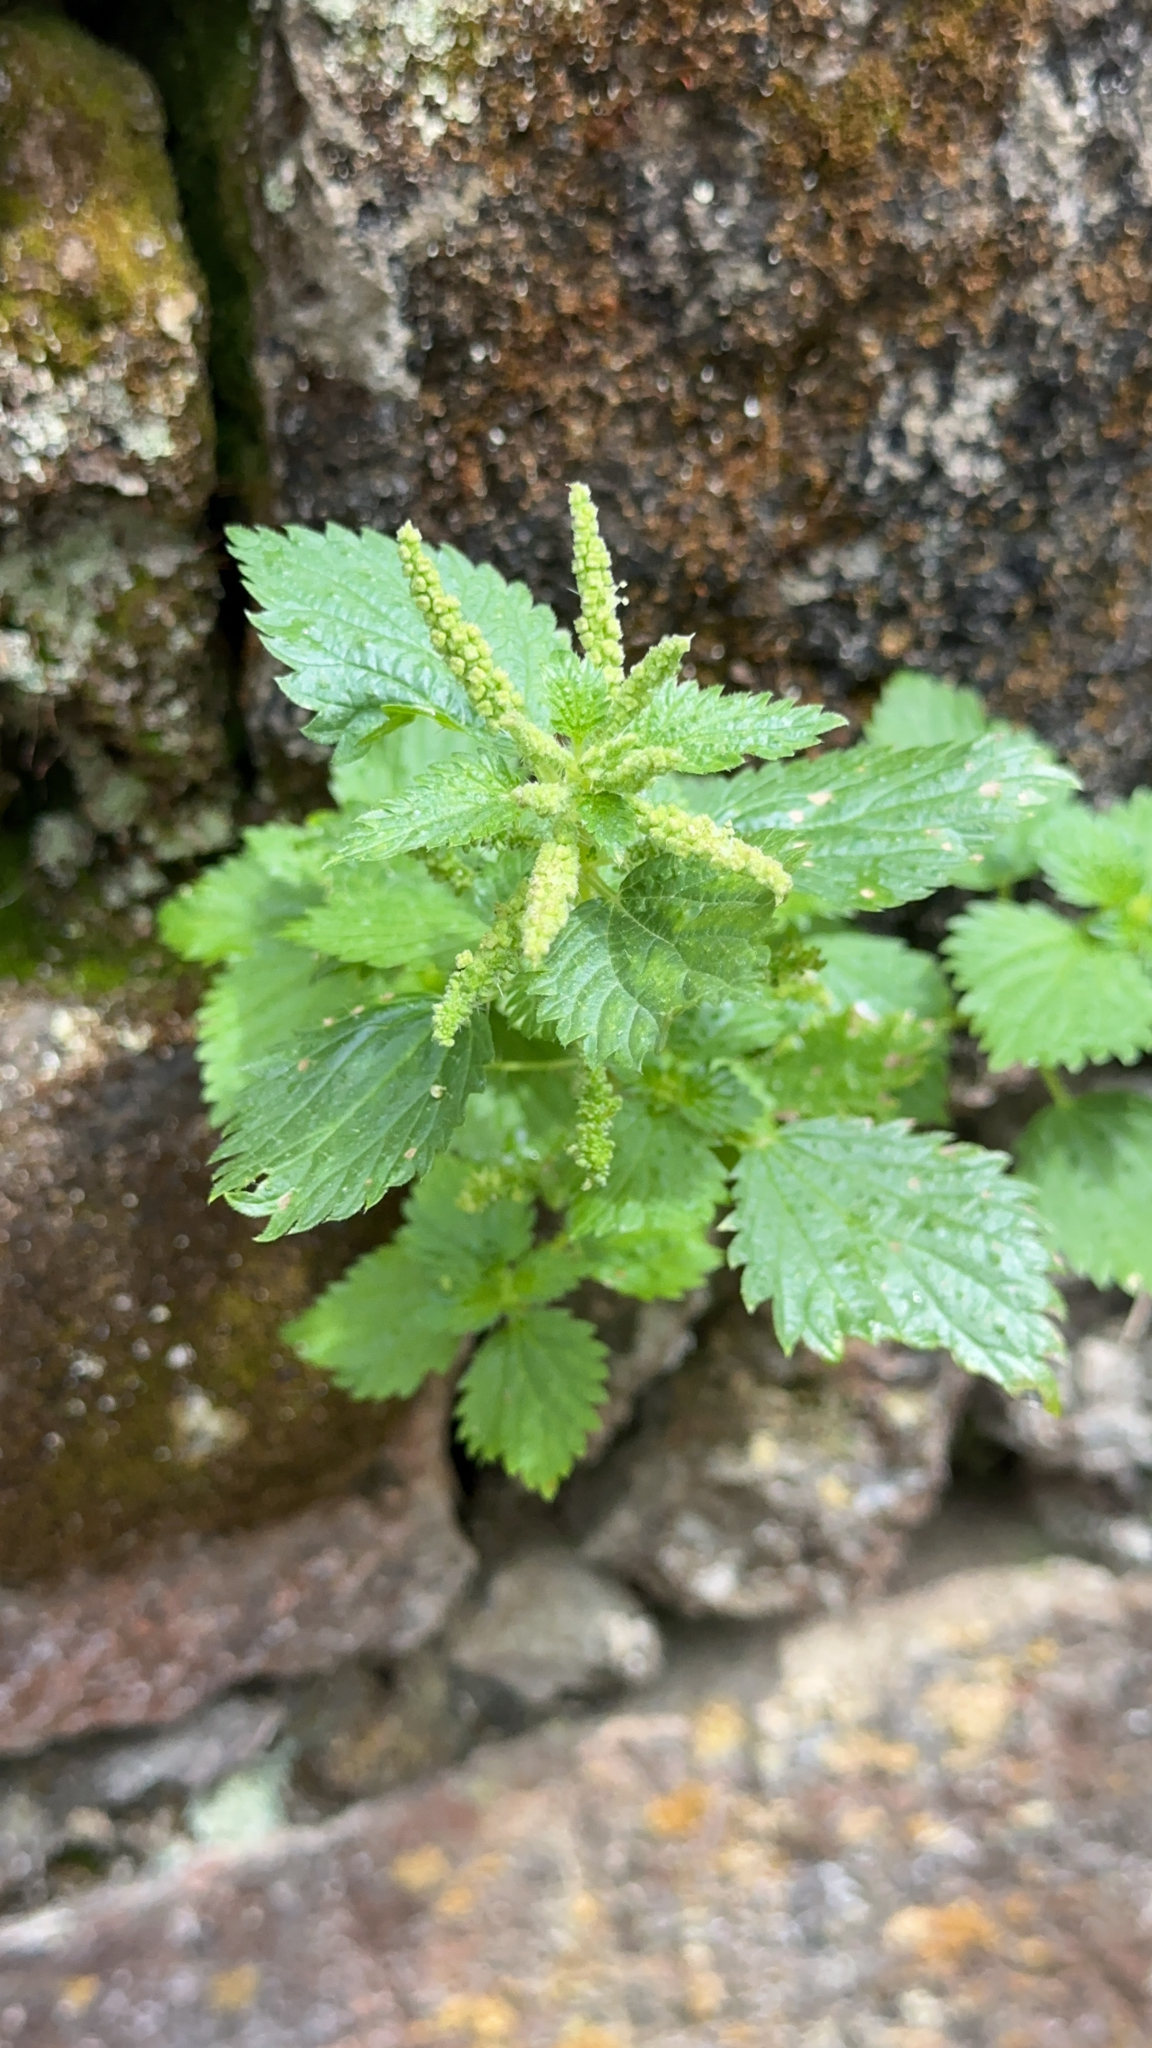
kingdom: Plantae
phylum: Tracheophyta
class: Magnoliopsida
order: Rosales
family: Urticaceae
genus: Urtica
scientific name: Urtica membranacea
